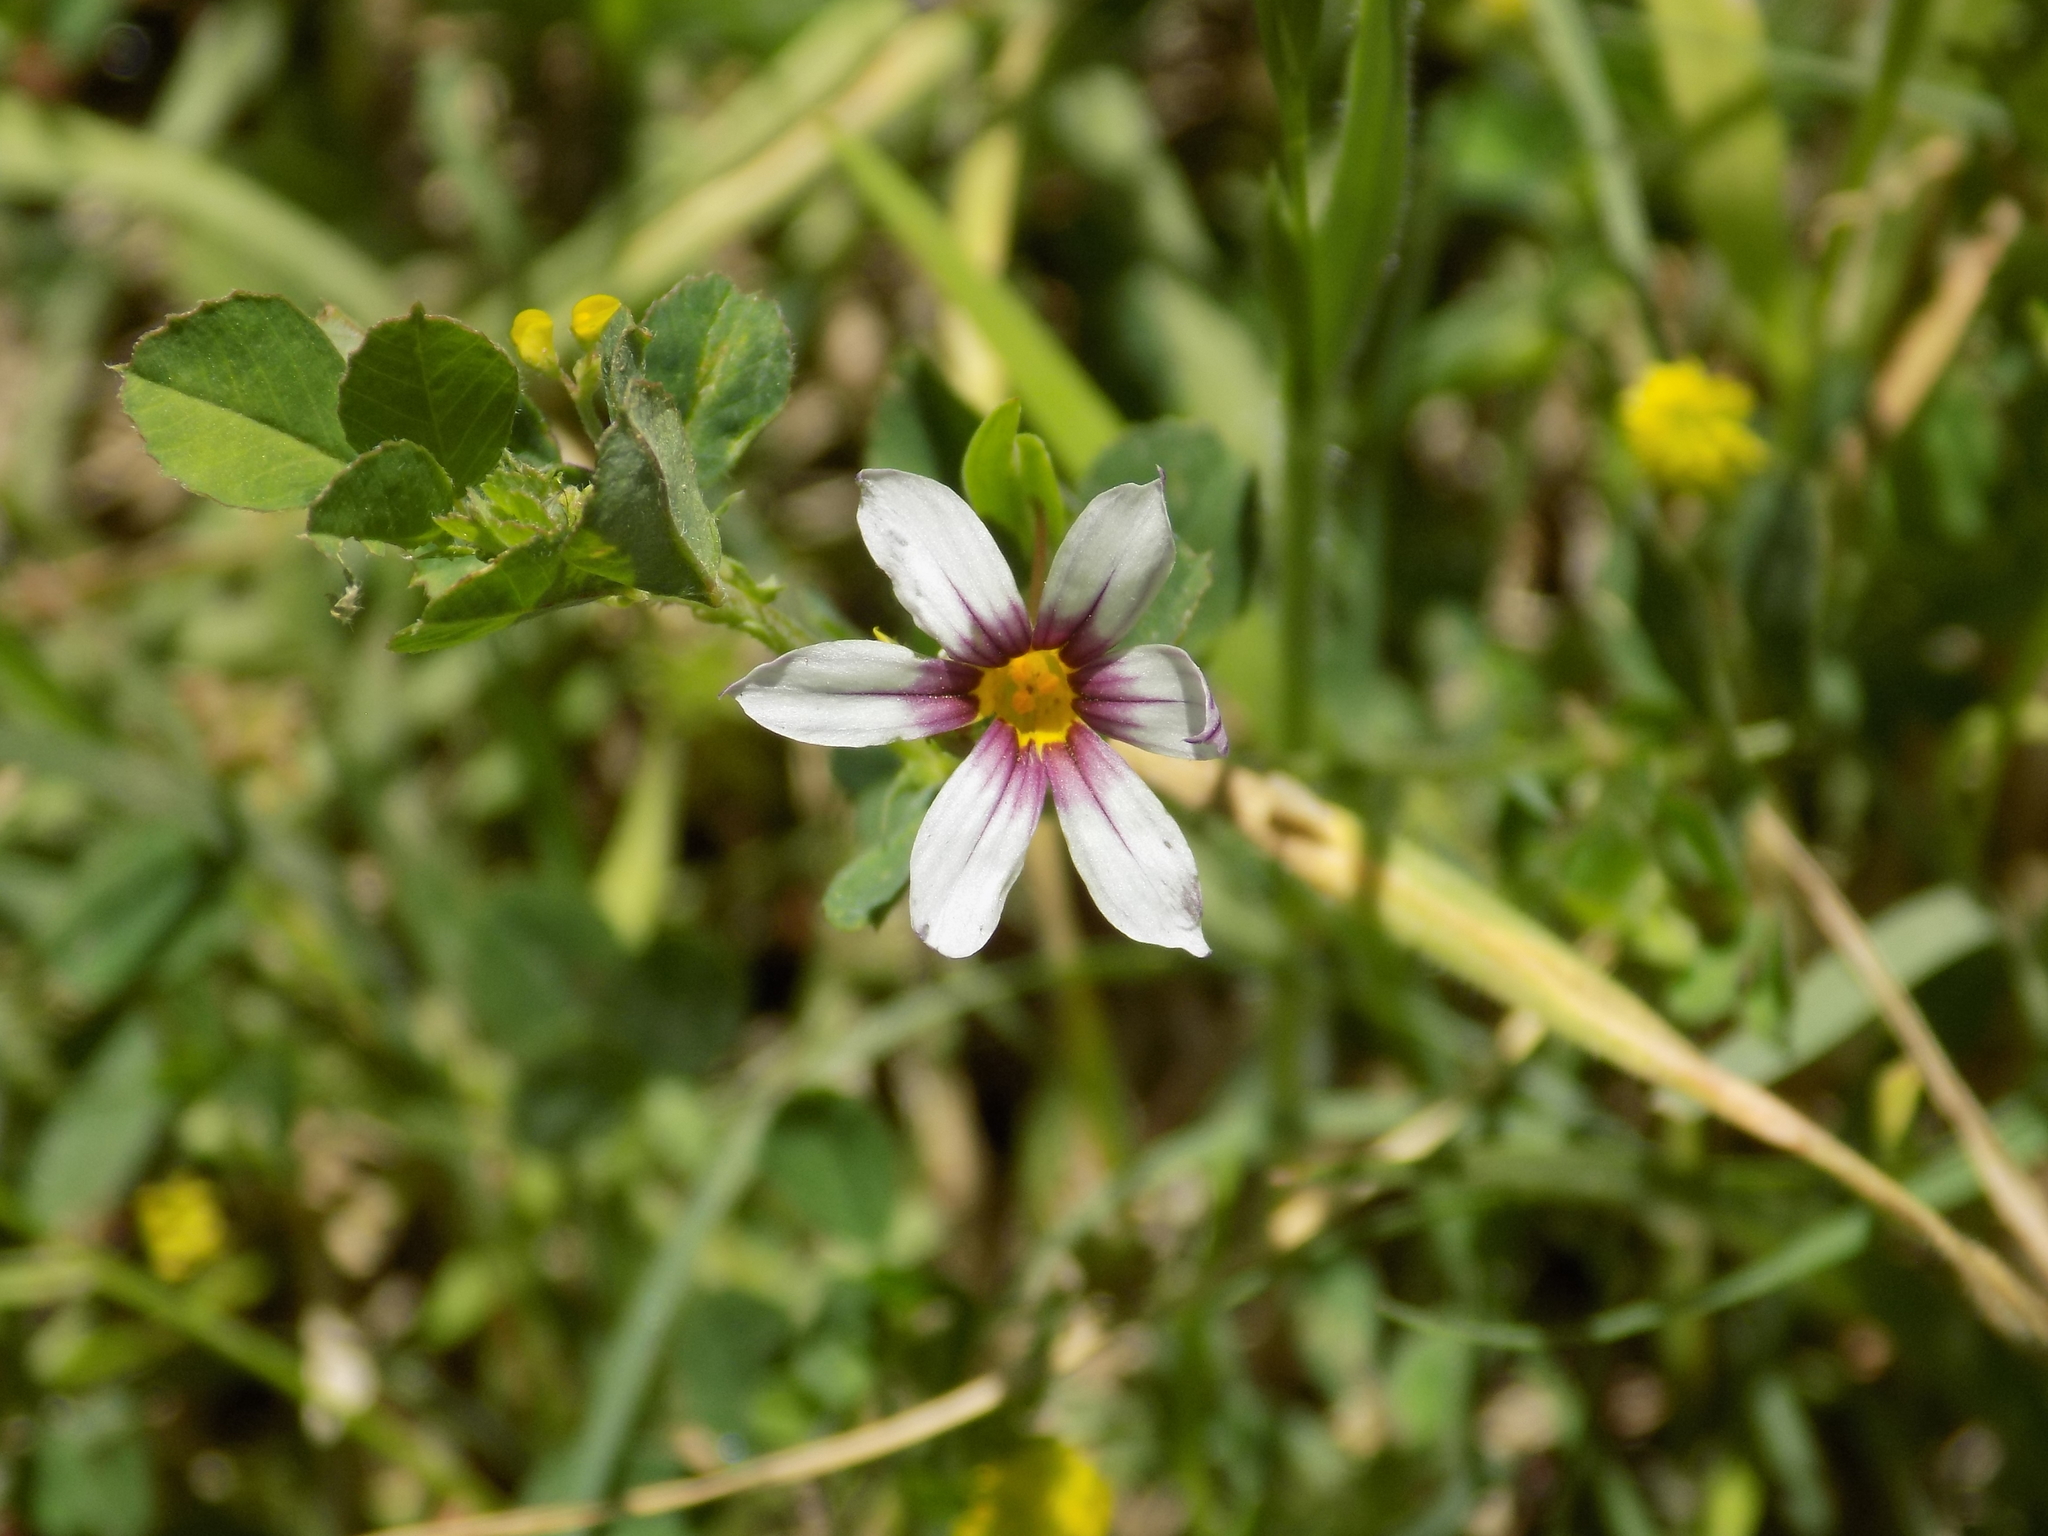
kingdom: Plantae
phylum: Tracheophyta
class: Liliopsida
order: Asparagales
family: Iridaceae
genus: Sisyrinchium
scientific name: Sisyrinchium micranthum
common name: Bermuda pigroot
